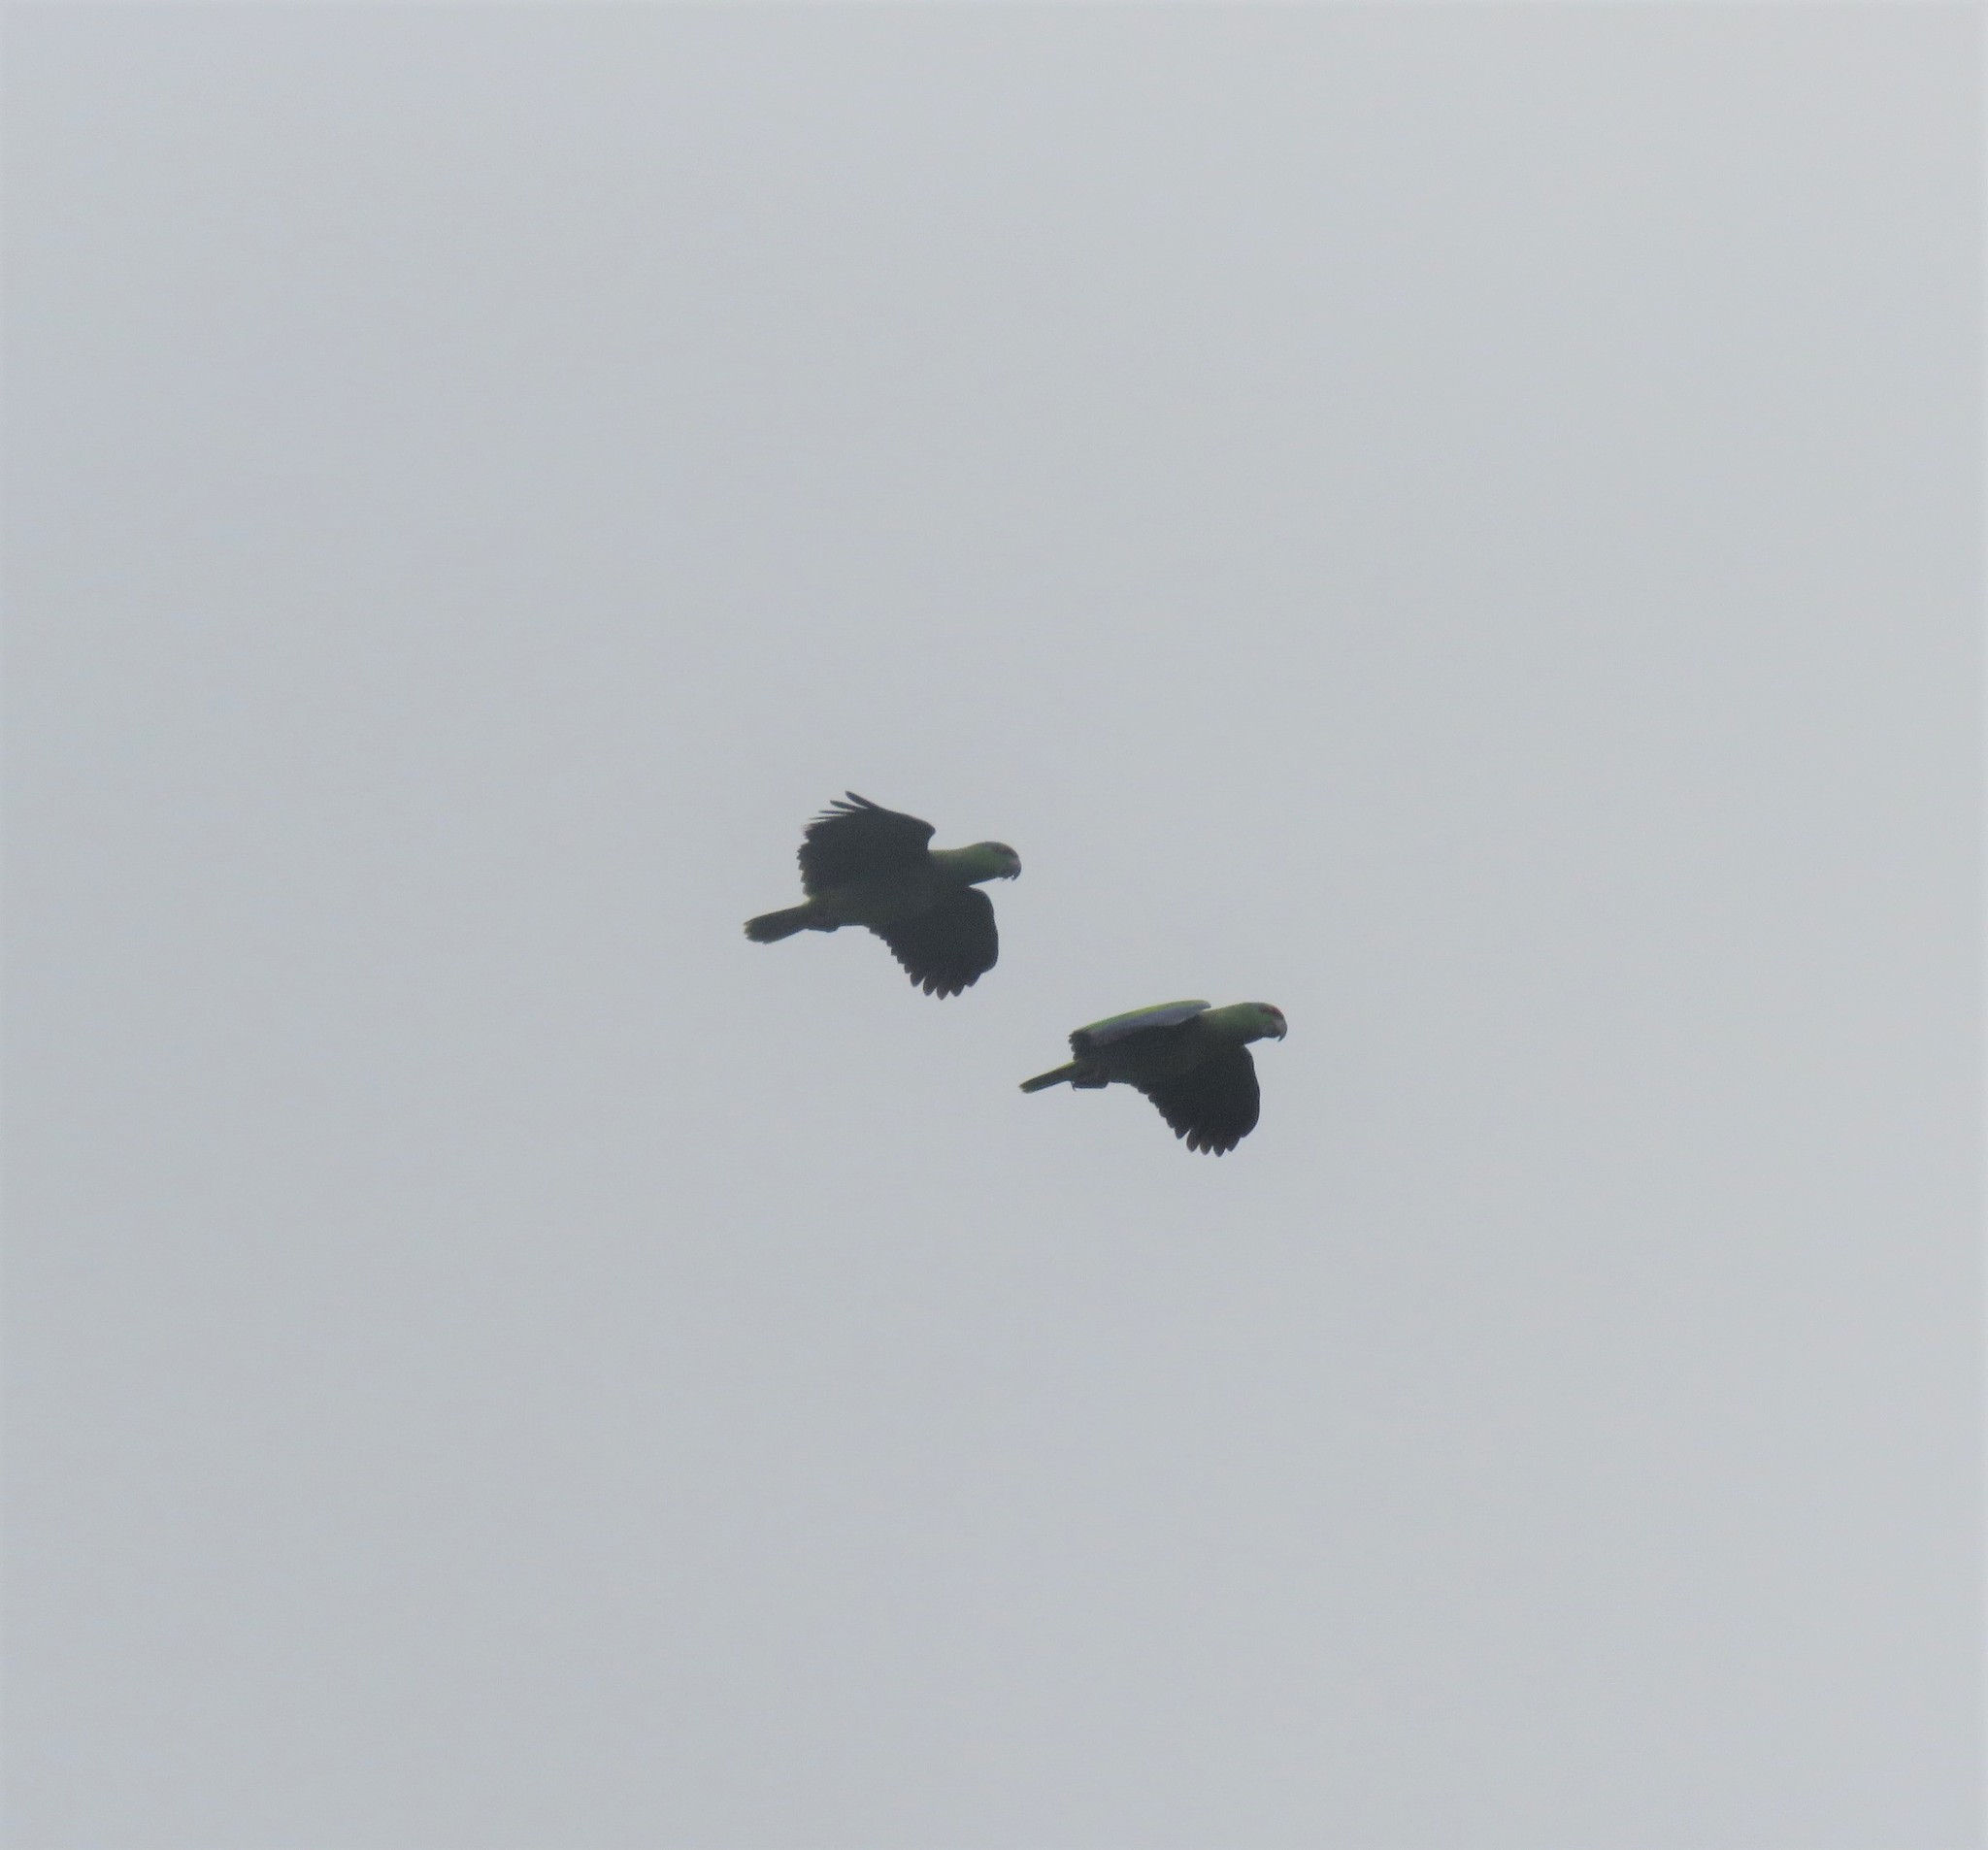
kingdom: Animalia
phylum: Chordata
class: Aves
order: Psittaciformes
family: Psittacidae
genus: Amazona
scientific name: Amazona festiva
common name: Festive amazon
